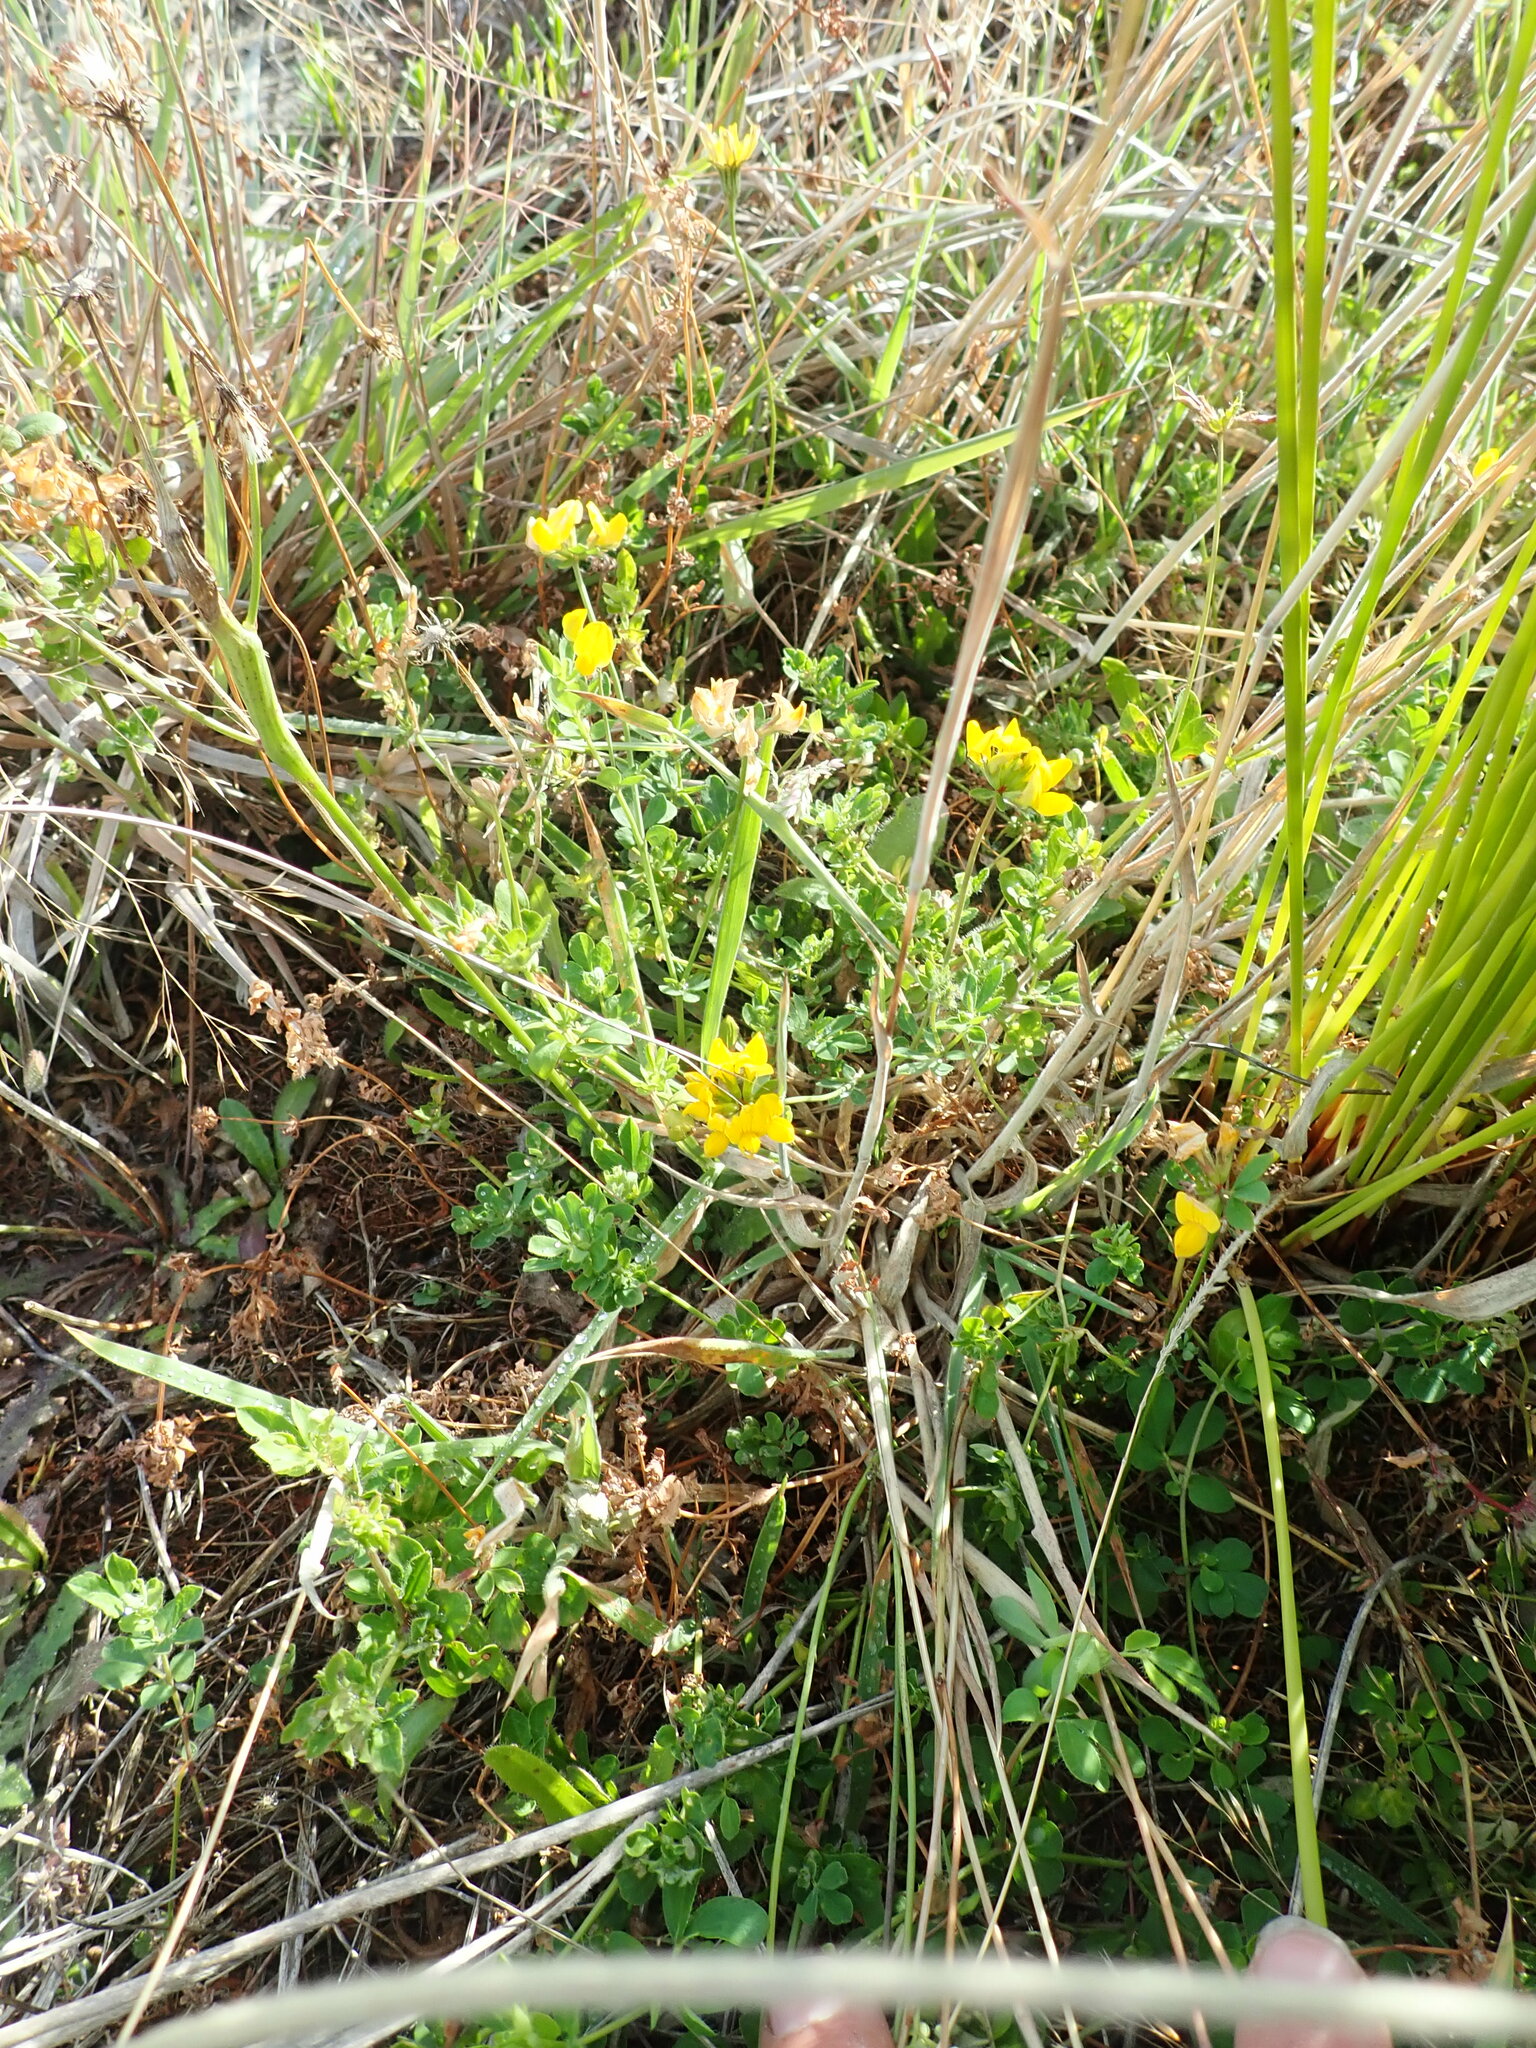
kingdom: Plantae
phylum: Tracheophyta
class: Magnoliopsida
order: Fabales
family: Fabaceae
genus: Lotus
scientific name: Lotus pedunculatus
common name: Greater birdsfoot-trefoil
